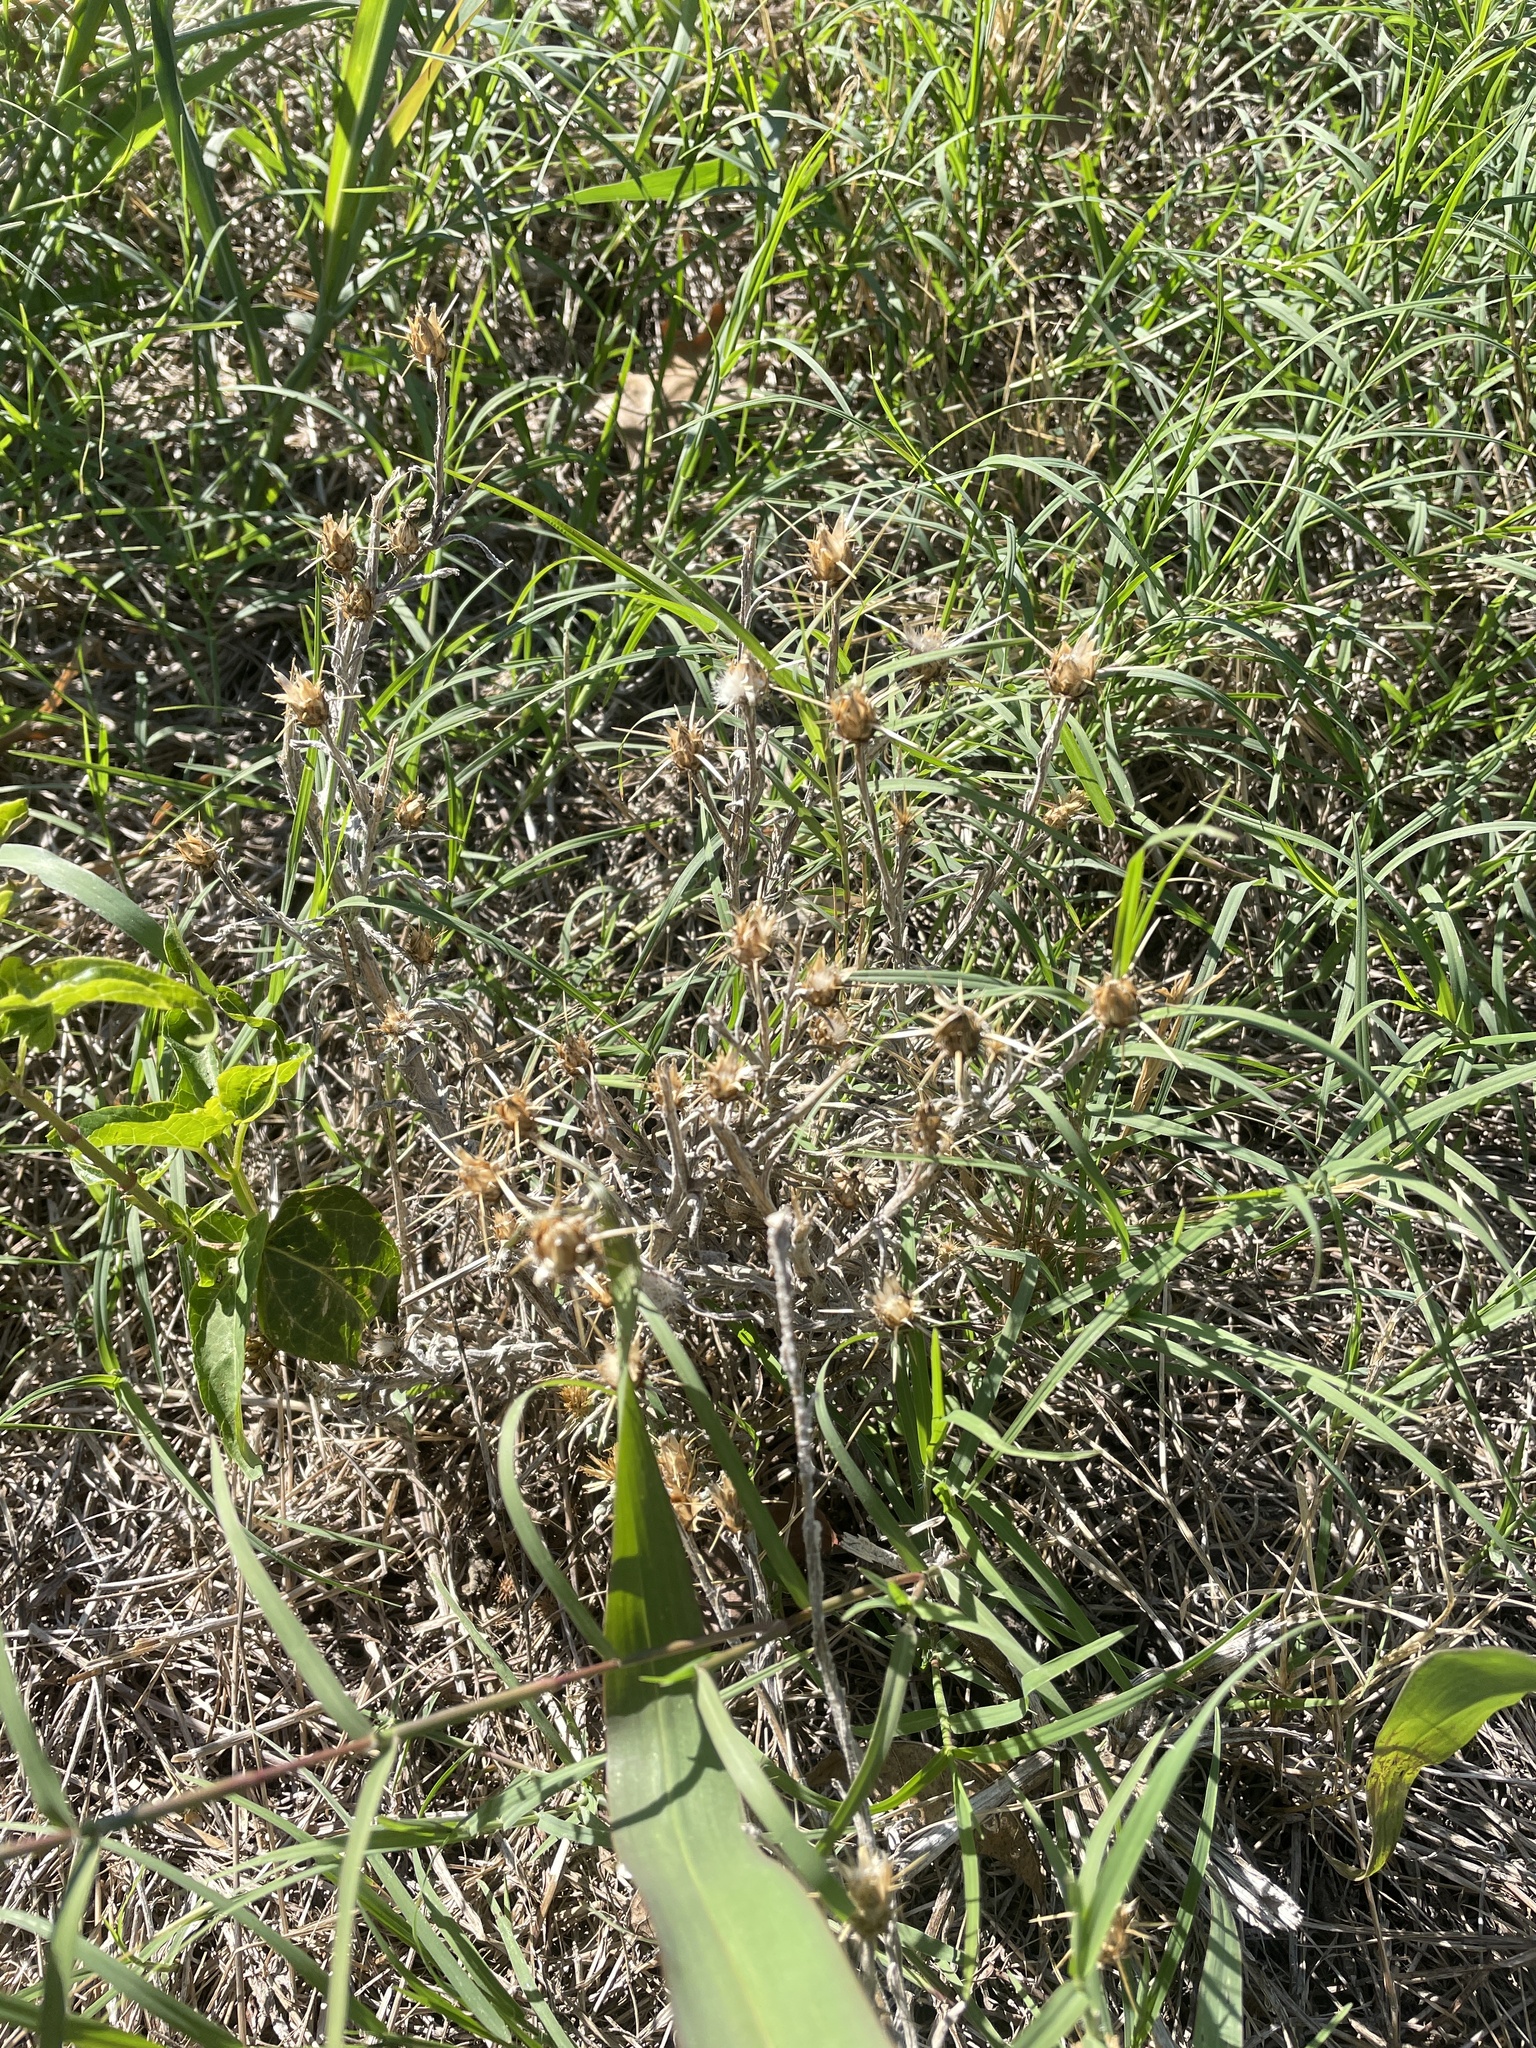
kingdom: Plantae
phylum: Tracheophyta
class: Magnoliopsida
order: Asterales
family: Asteraceae
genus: Centaurea
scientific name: Centaurea solstitialis
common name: Yellow star-thistle
